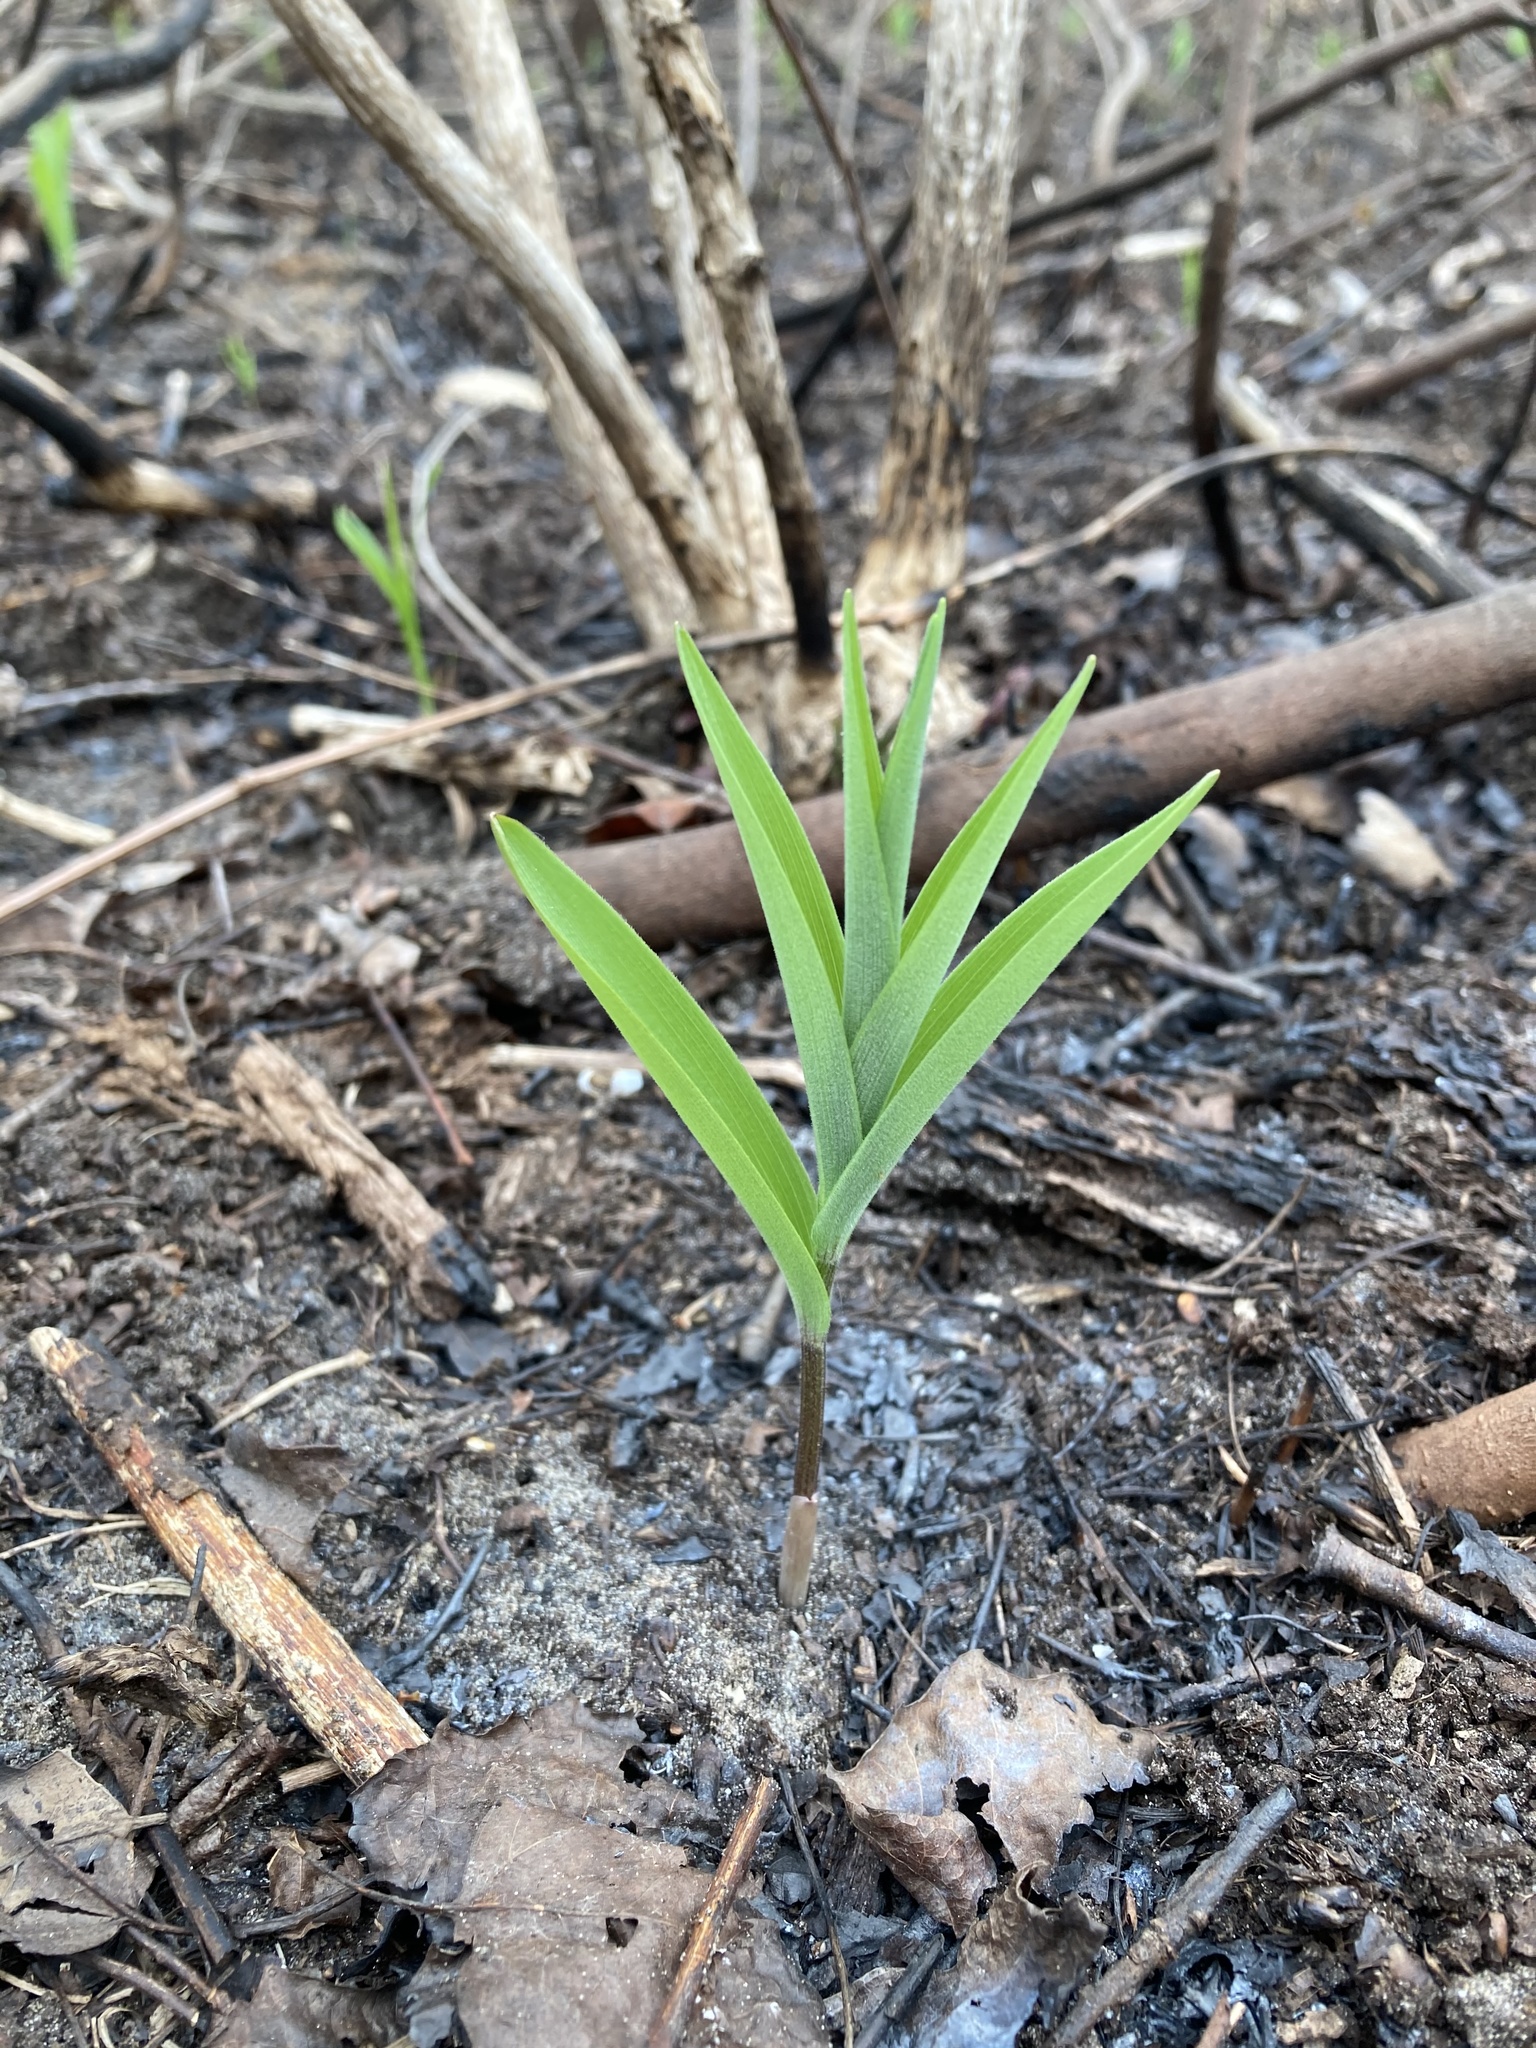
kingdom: Plantae
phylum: Tracheophyta
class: Liliopsida
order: Asparagales
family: Asparagaceae
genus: Maianthemum
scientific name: Maianthemum stellatum
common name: Little false solomon's seal
